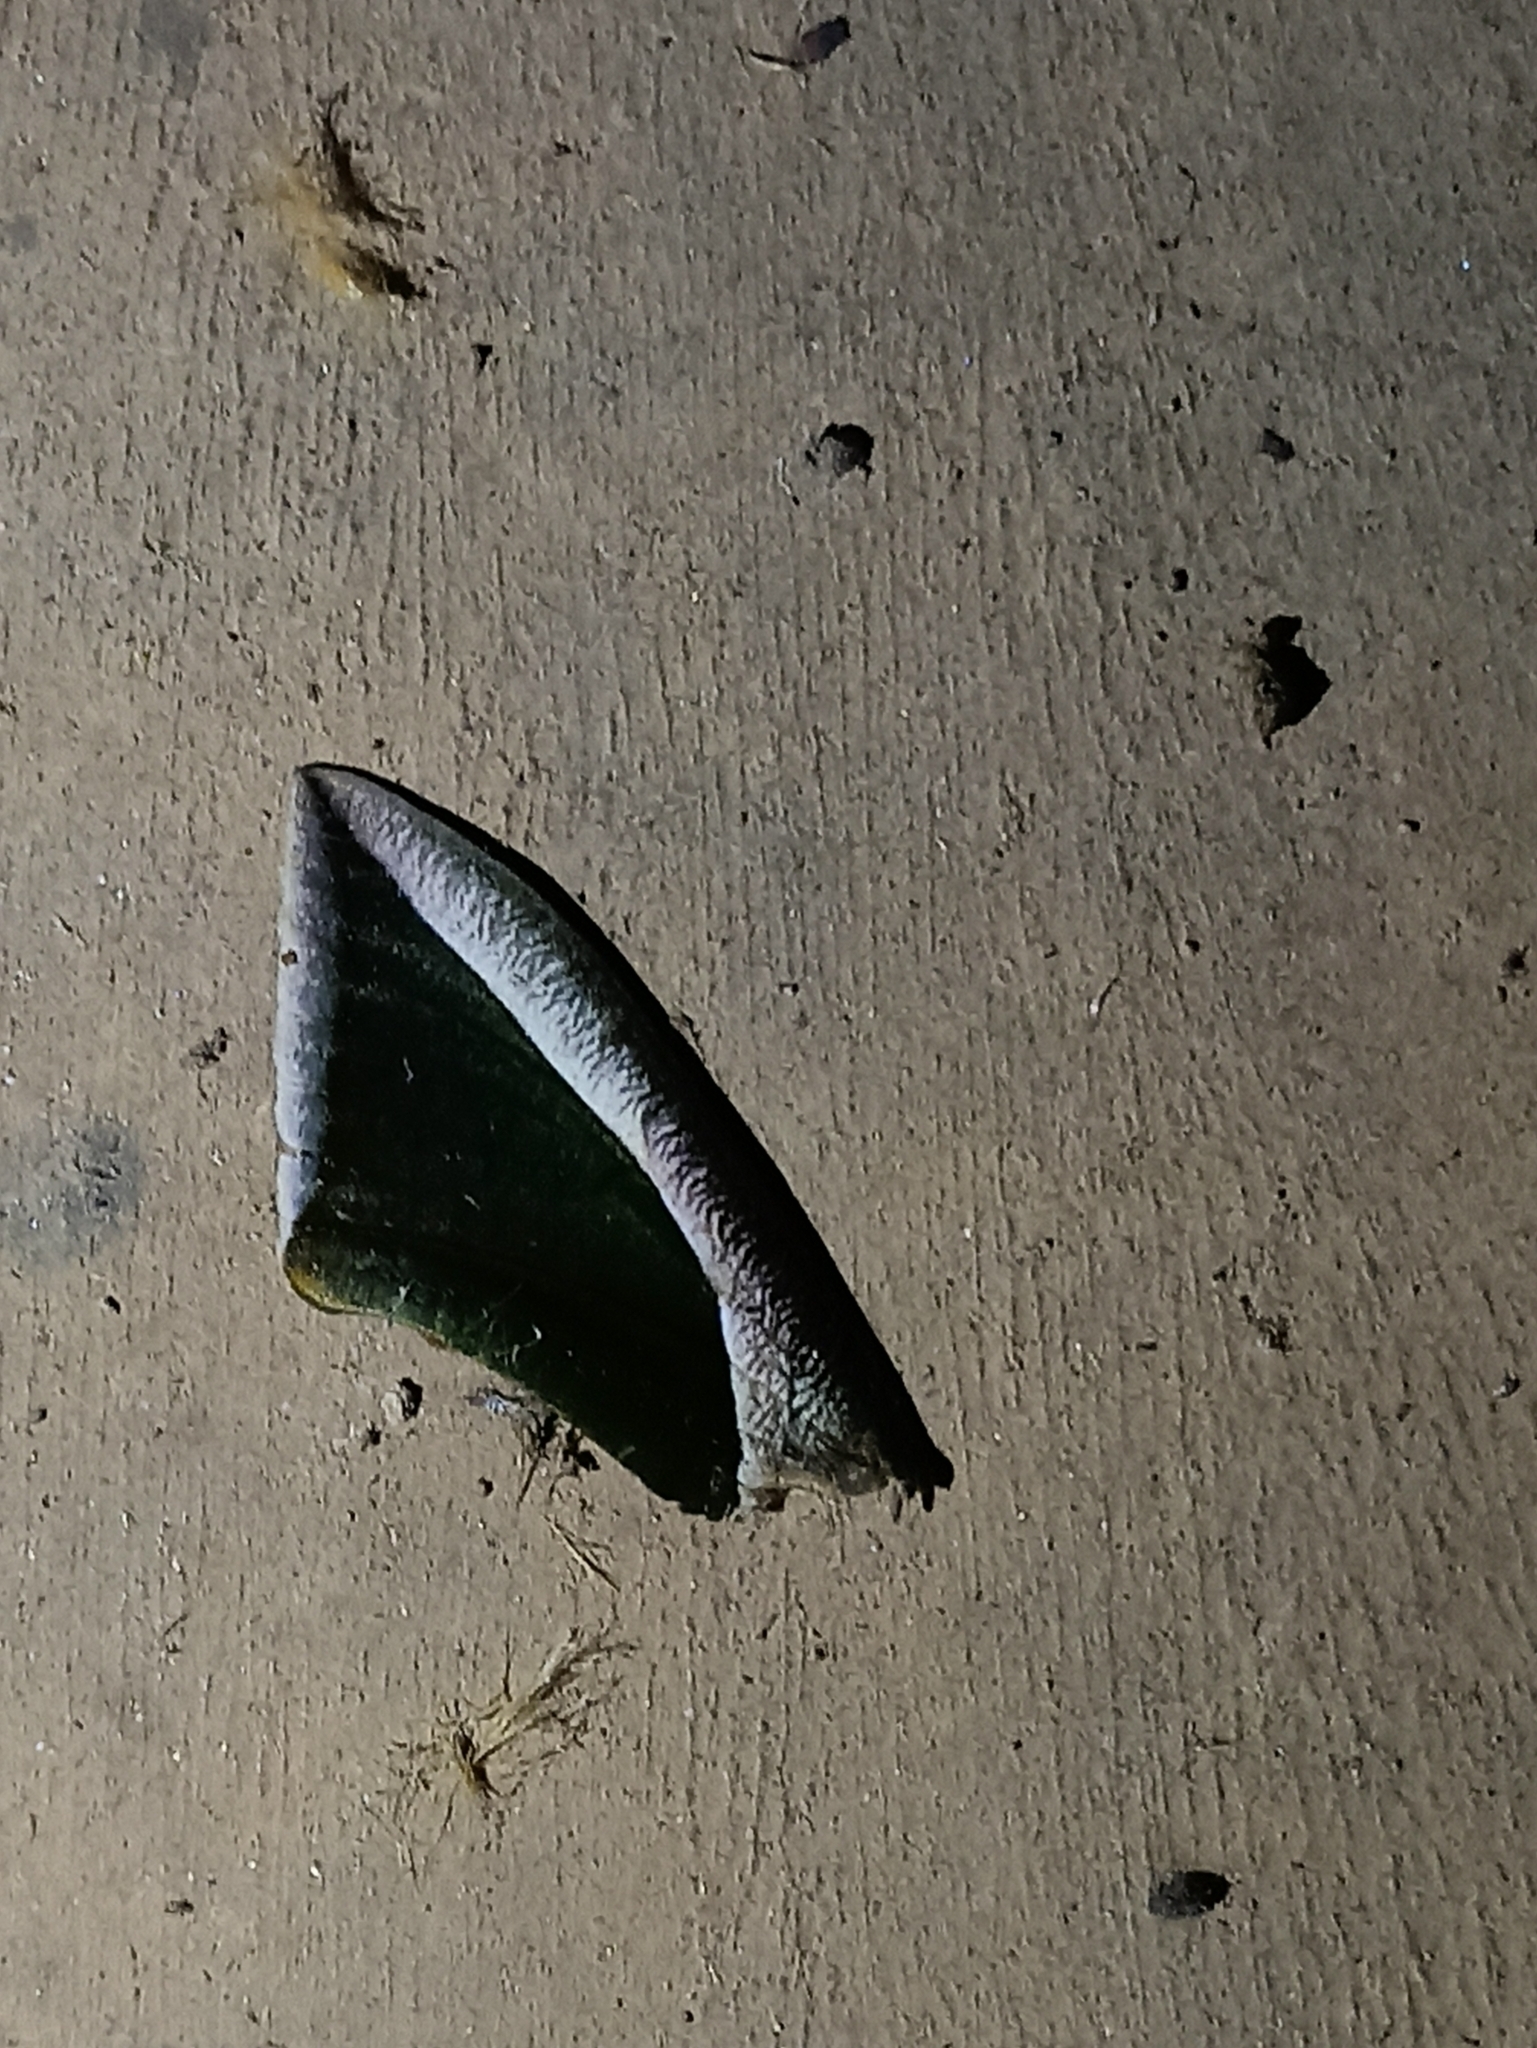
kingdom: Animalia
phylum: Arthropoda
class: Insecta
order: Lepidoptera
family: Erebidae
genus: Eudocima
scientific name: Eudocima salaminia
